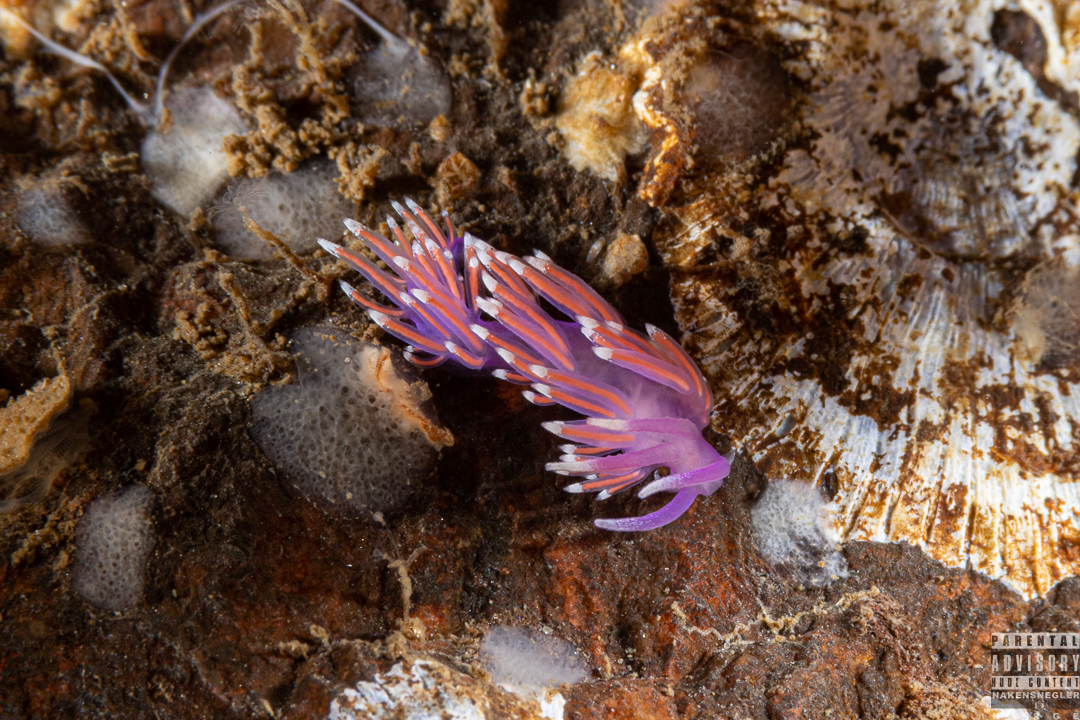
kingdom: Animalia
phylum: Mollusca
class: Gastropoda
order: Nudibranchia
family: Flabellinidae
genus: Edmundsella
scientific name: Edmundsella pedata
